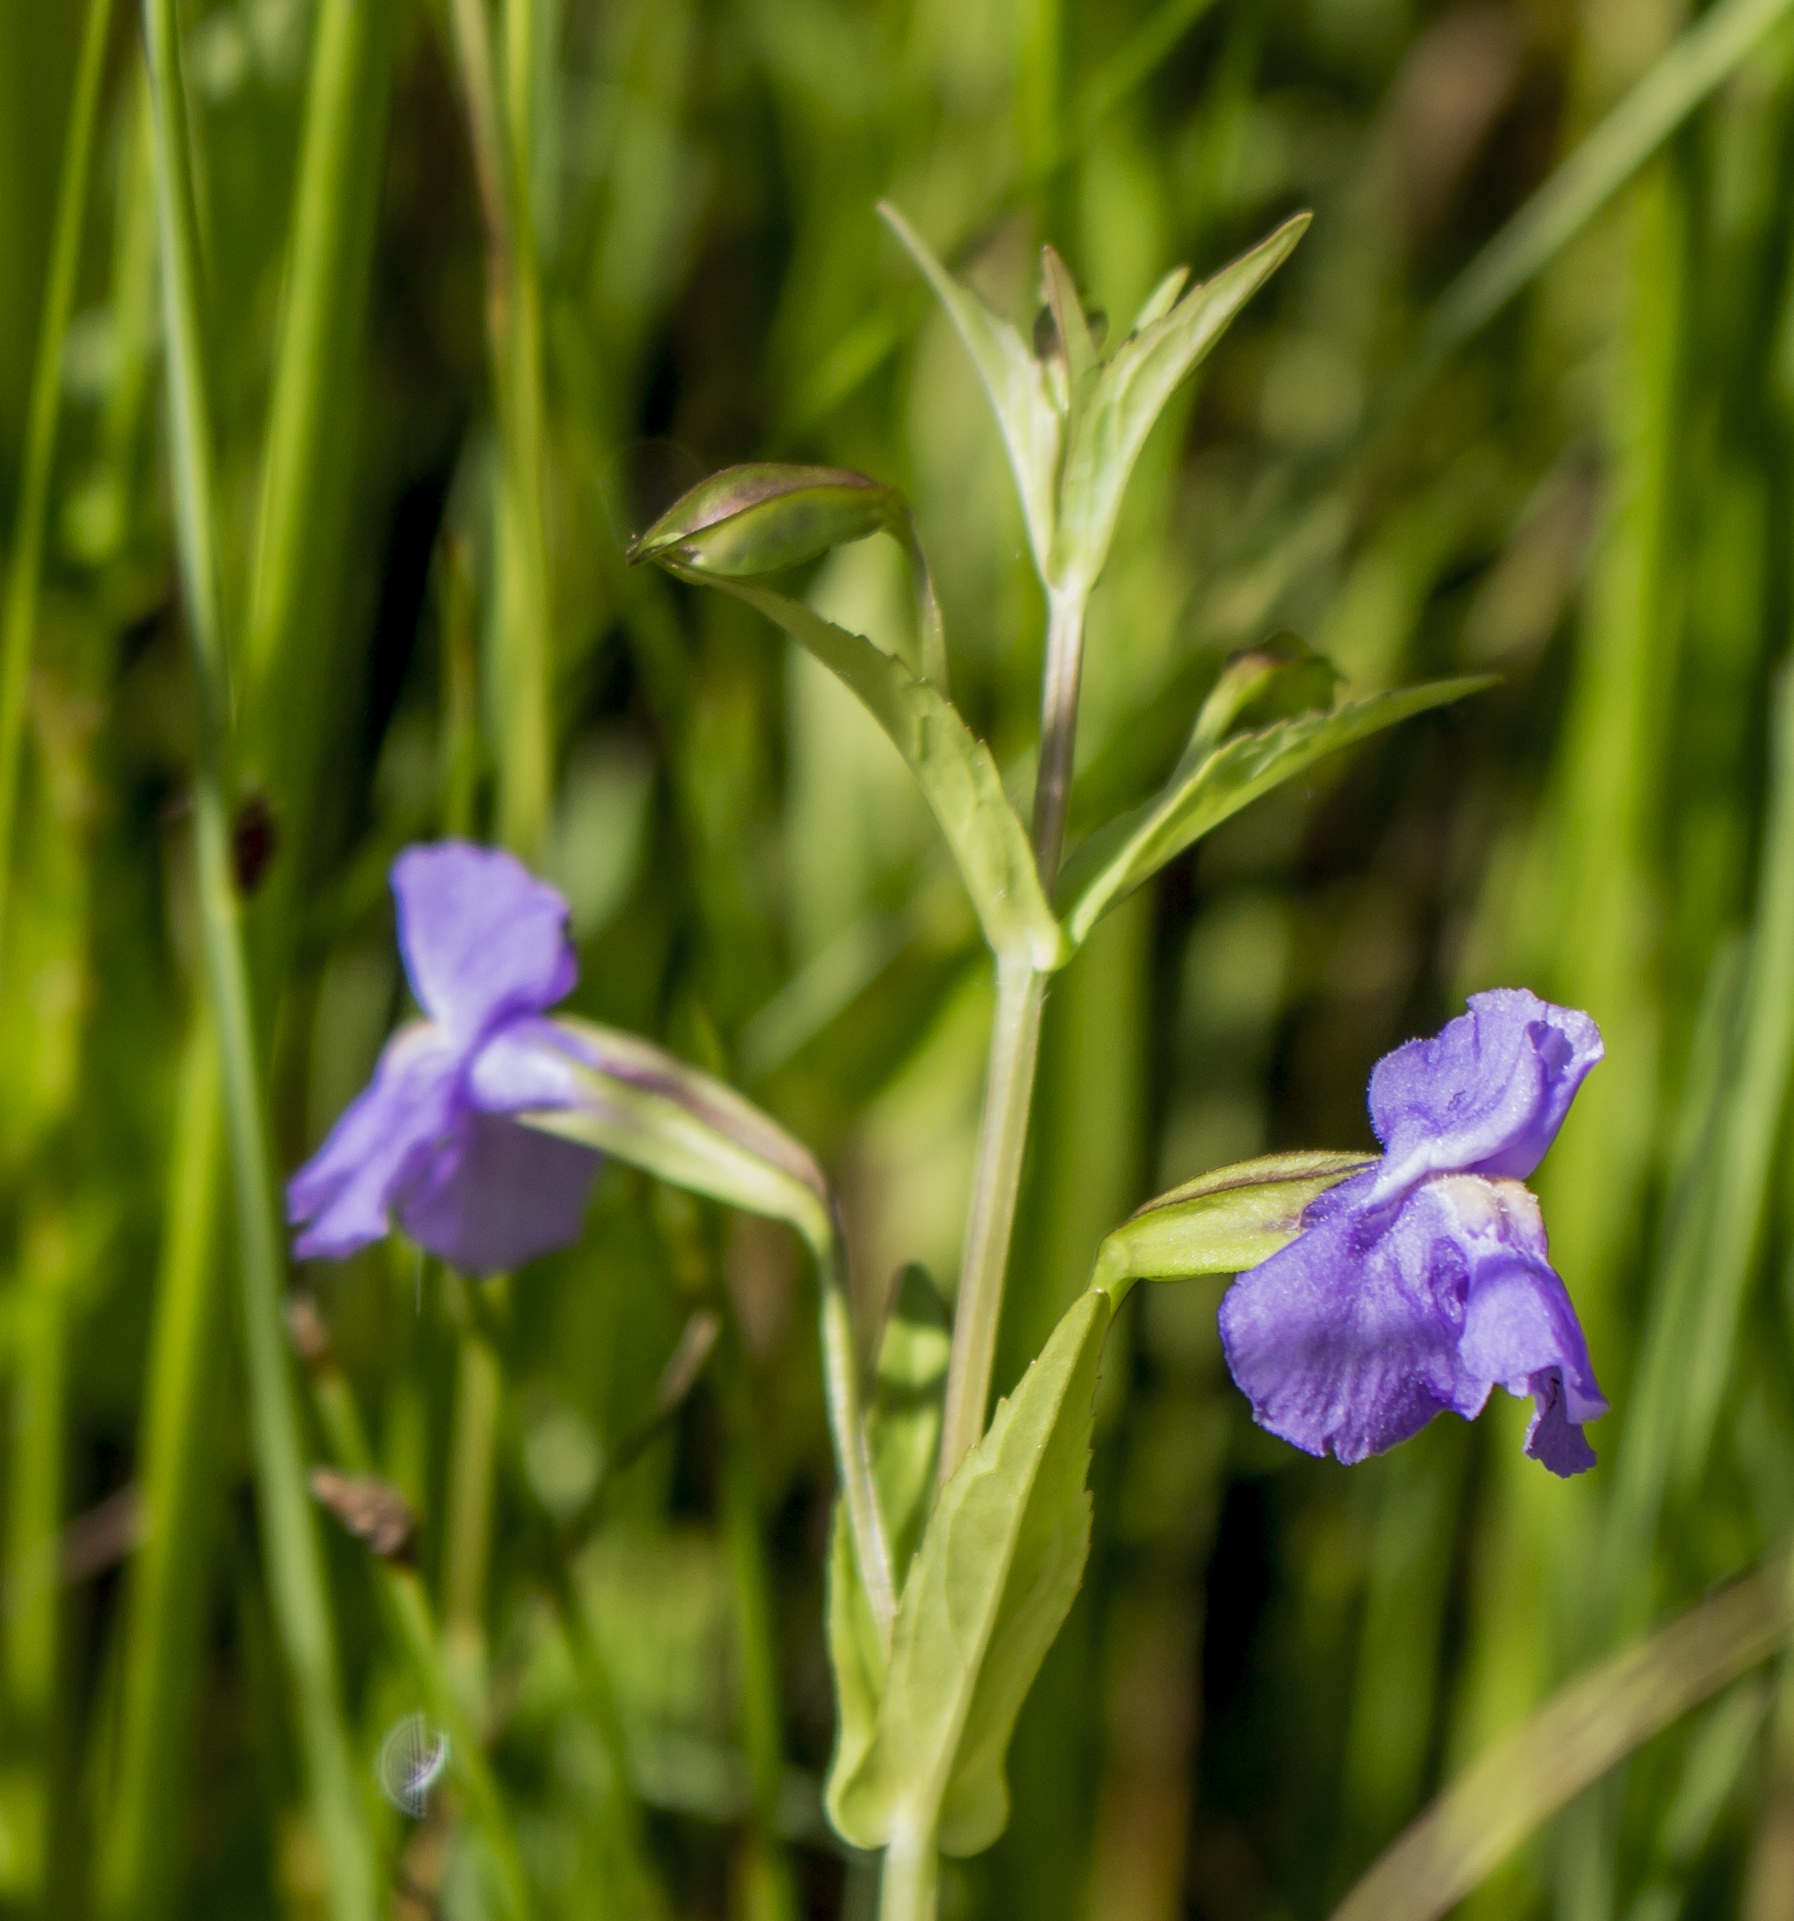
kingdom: Plantae
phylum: Tracheophyta
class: Magnoliopsida
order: Lamiales
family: Phrymaceae
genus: Mimulus
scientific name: Mimulus ringens
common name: Allegheny monkeyflower
